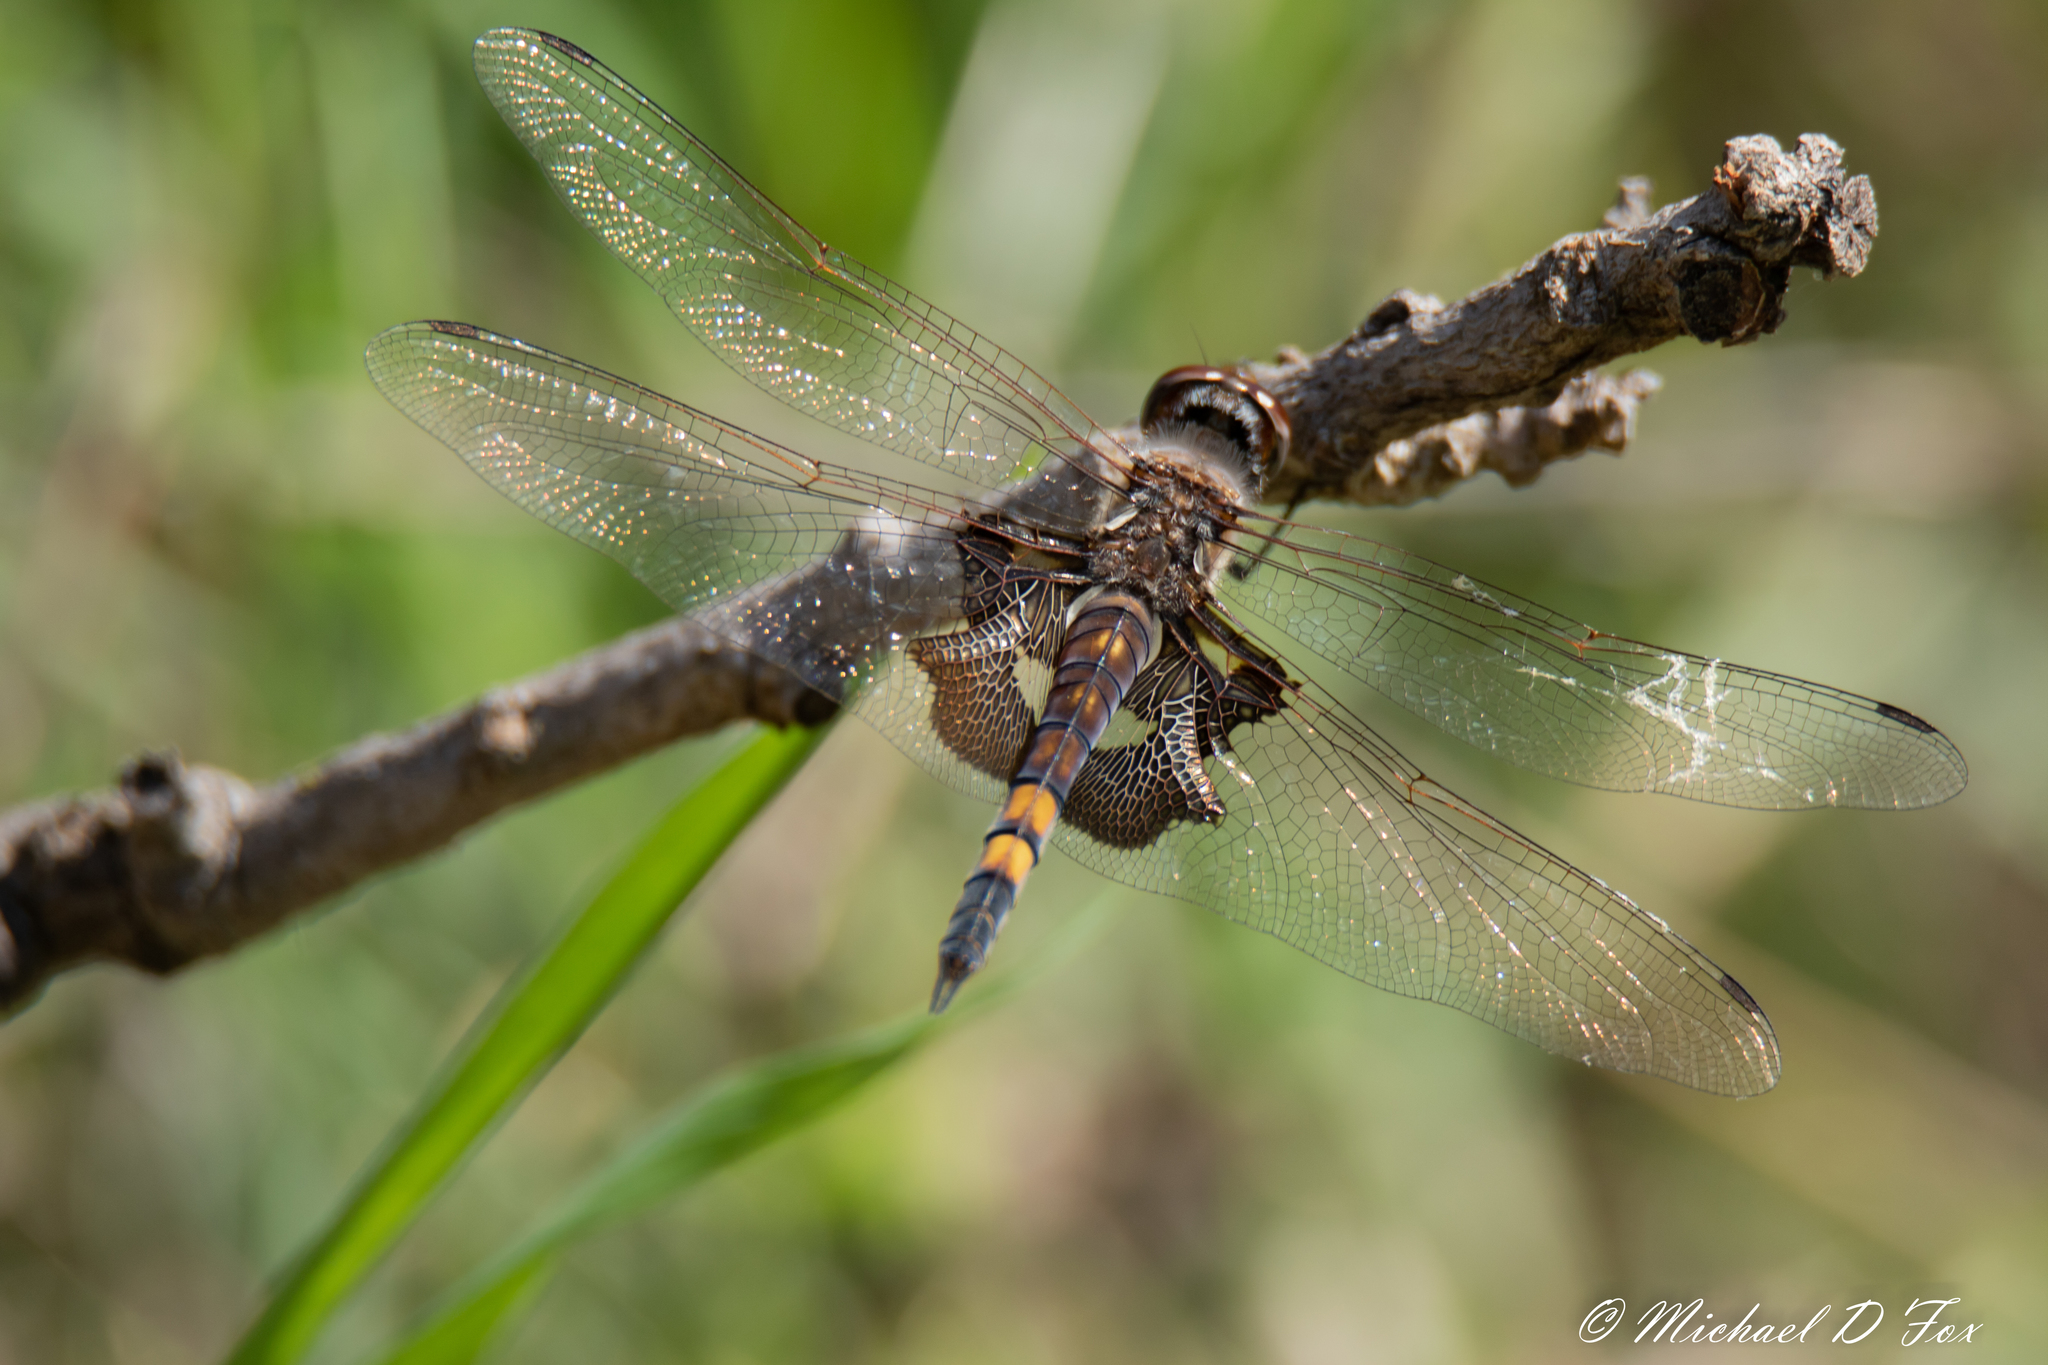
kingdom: Animalia
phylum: Arthropoda
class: Insecta
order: Odonata
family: Libellulidae
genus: Tramea
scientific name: Tramea lacerata
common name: Black saddlebags
